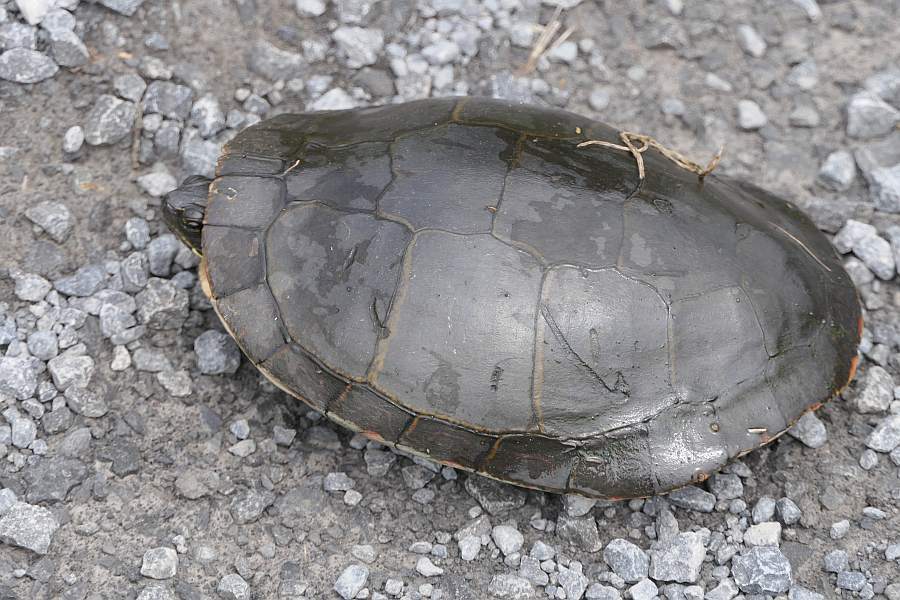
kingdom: Animalia
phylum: Chordata
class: Testudines
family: Emydidae
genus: Chrysemys
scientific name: Chrysemys picta
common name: Painted turtle
